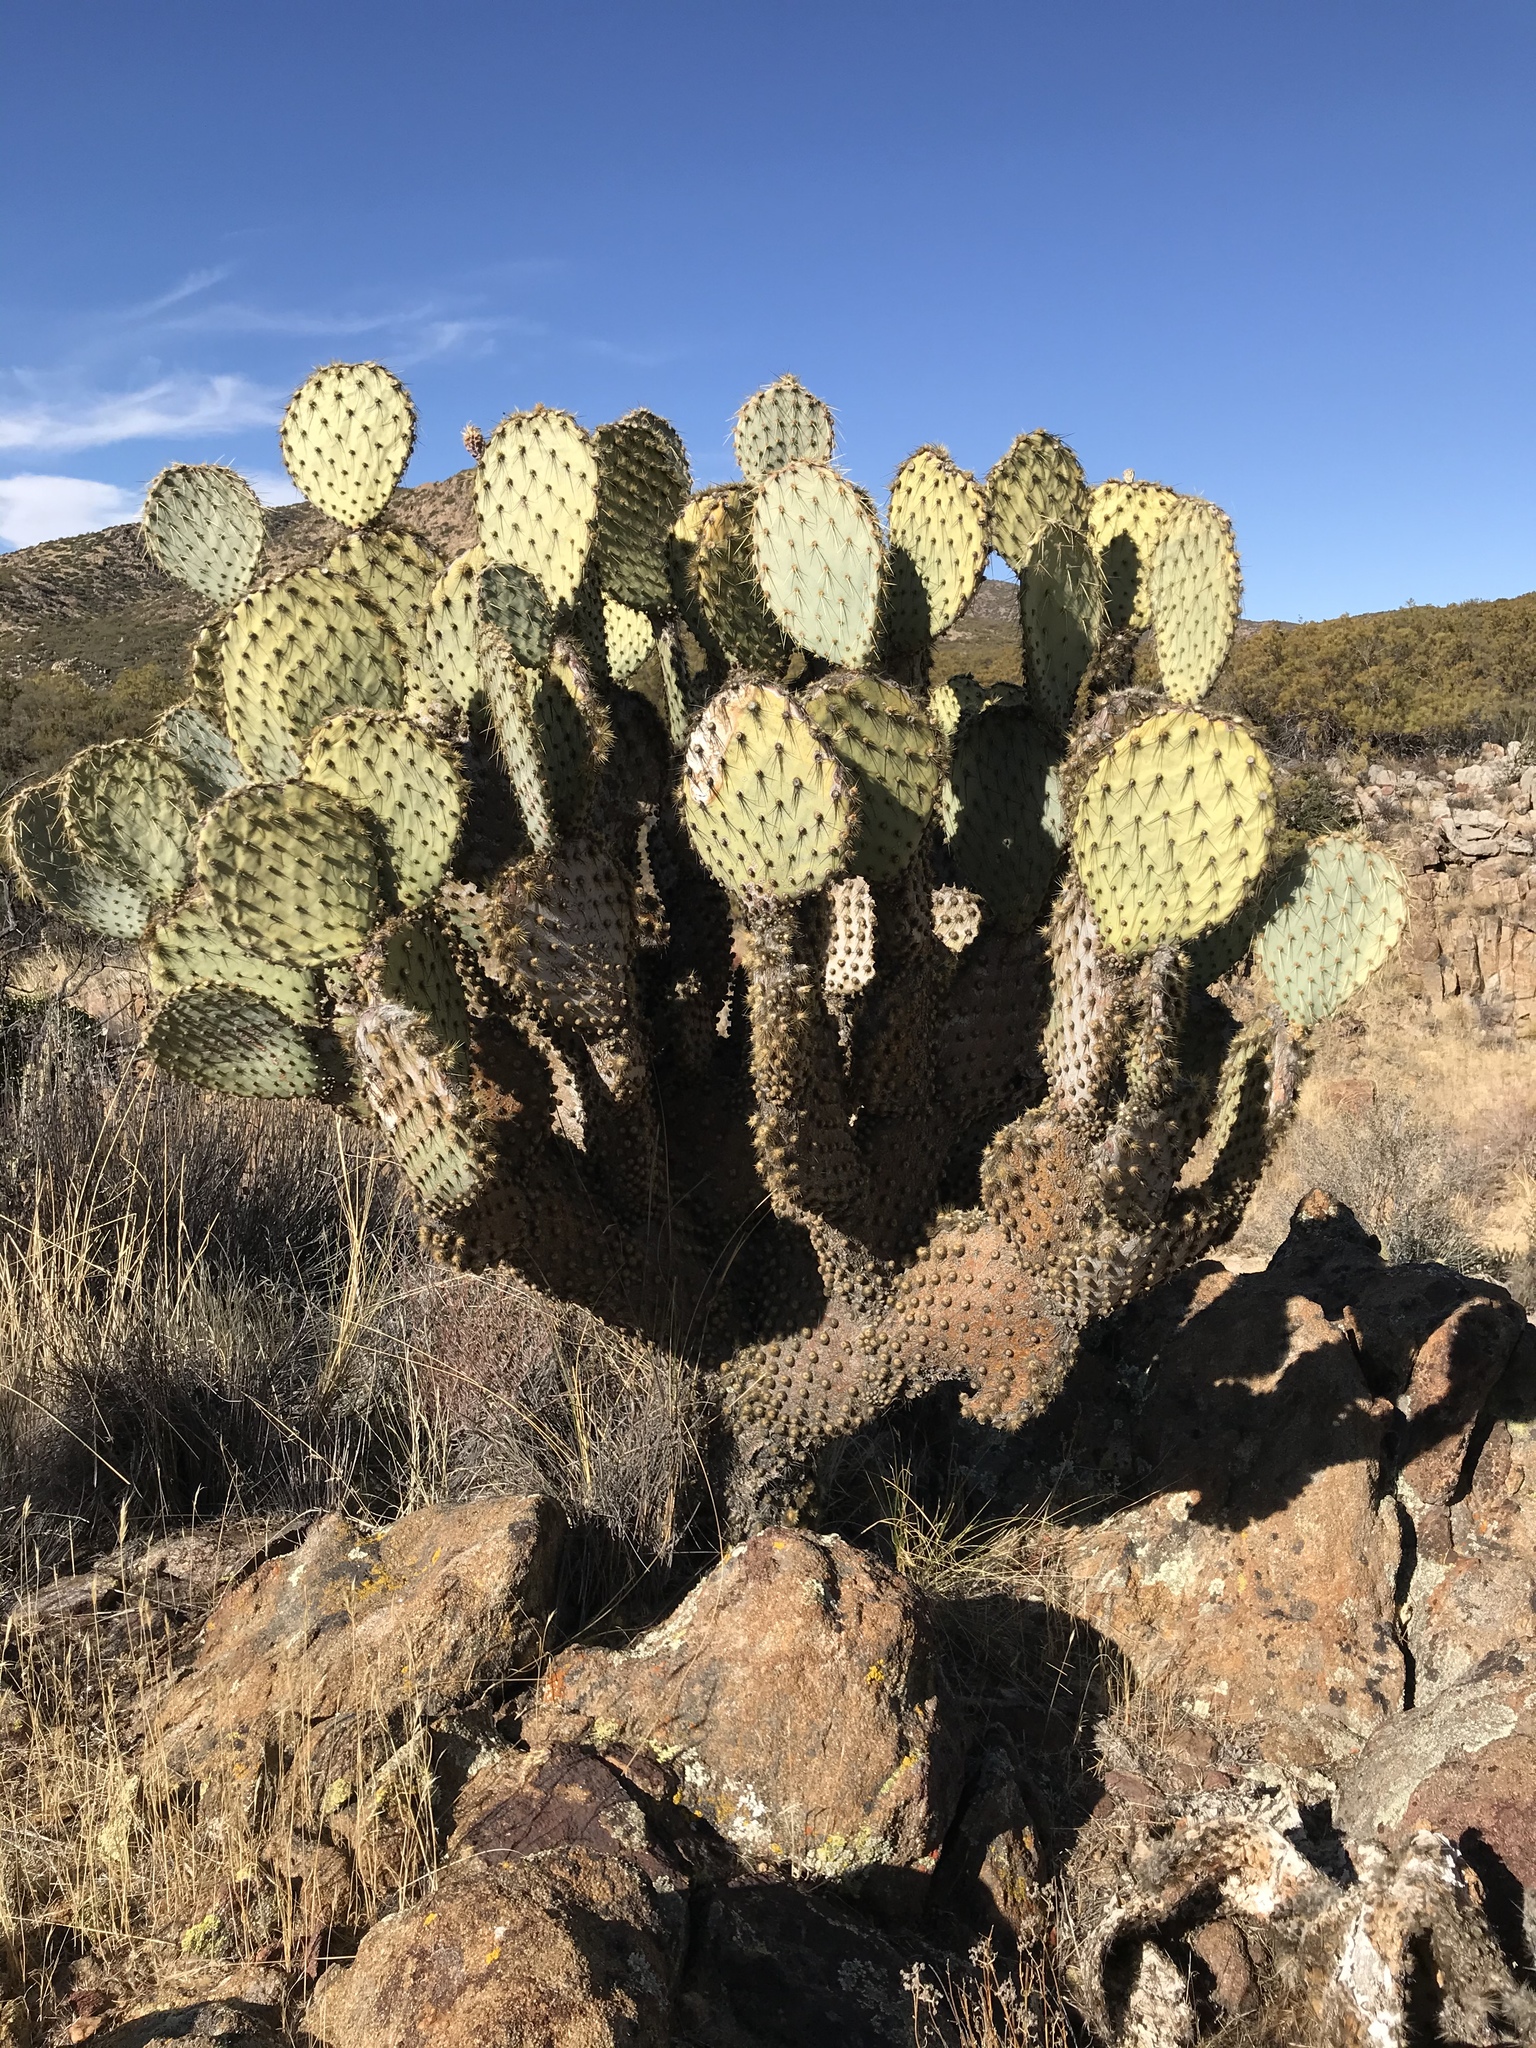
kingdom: Plantae
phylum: Tracheophyta
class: Magnoliopsida
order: Caryophyllales
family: Cactaceae
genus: Opuntia
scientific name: Opuntia chlorotica
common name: Dollar-joint prickly-pear
